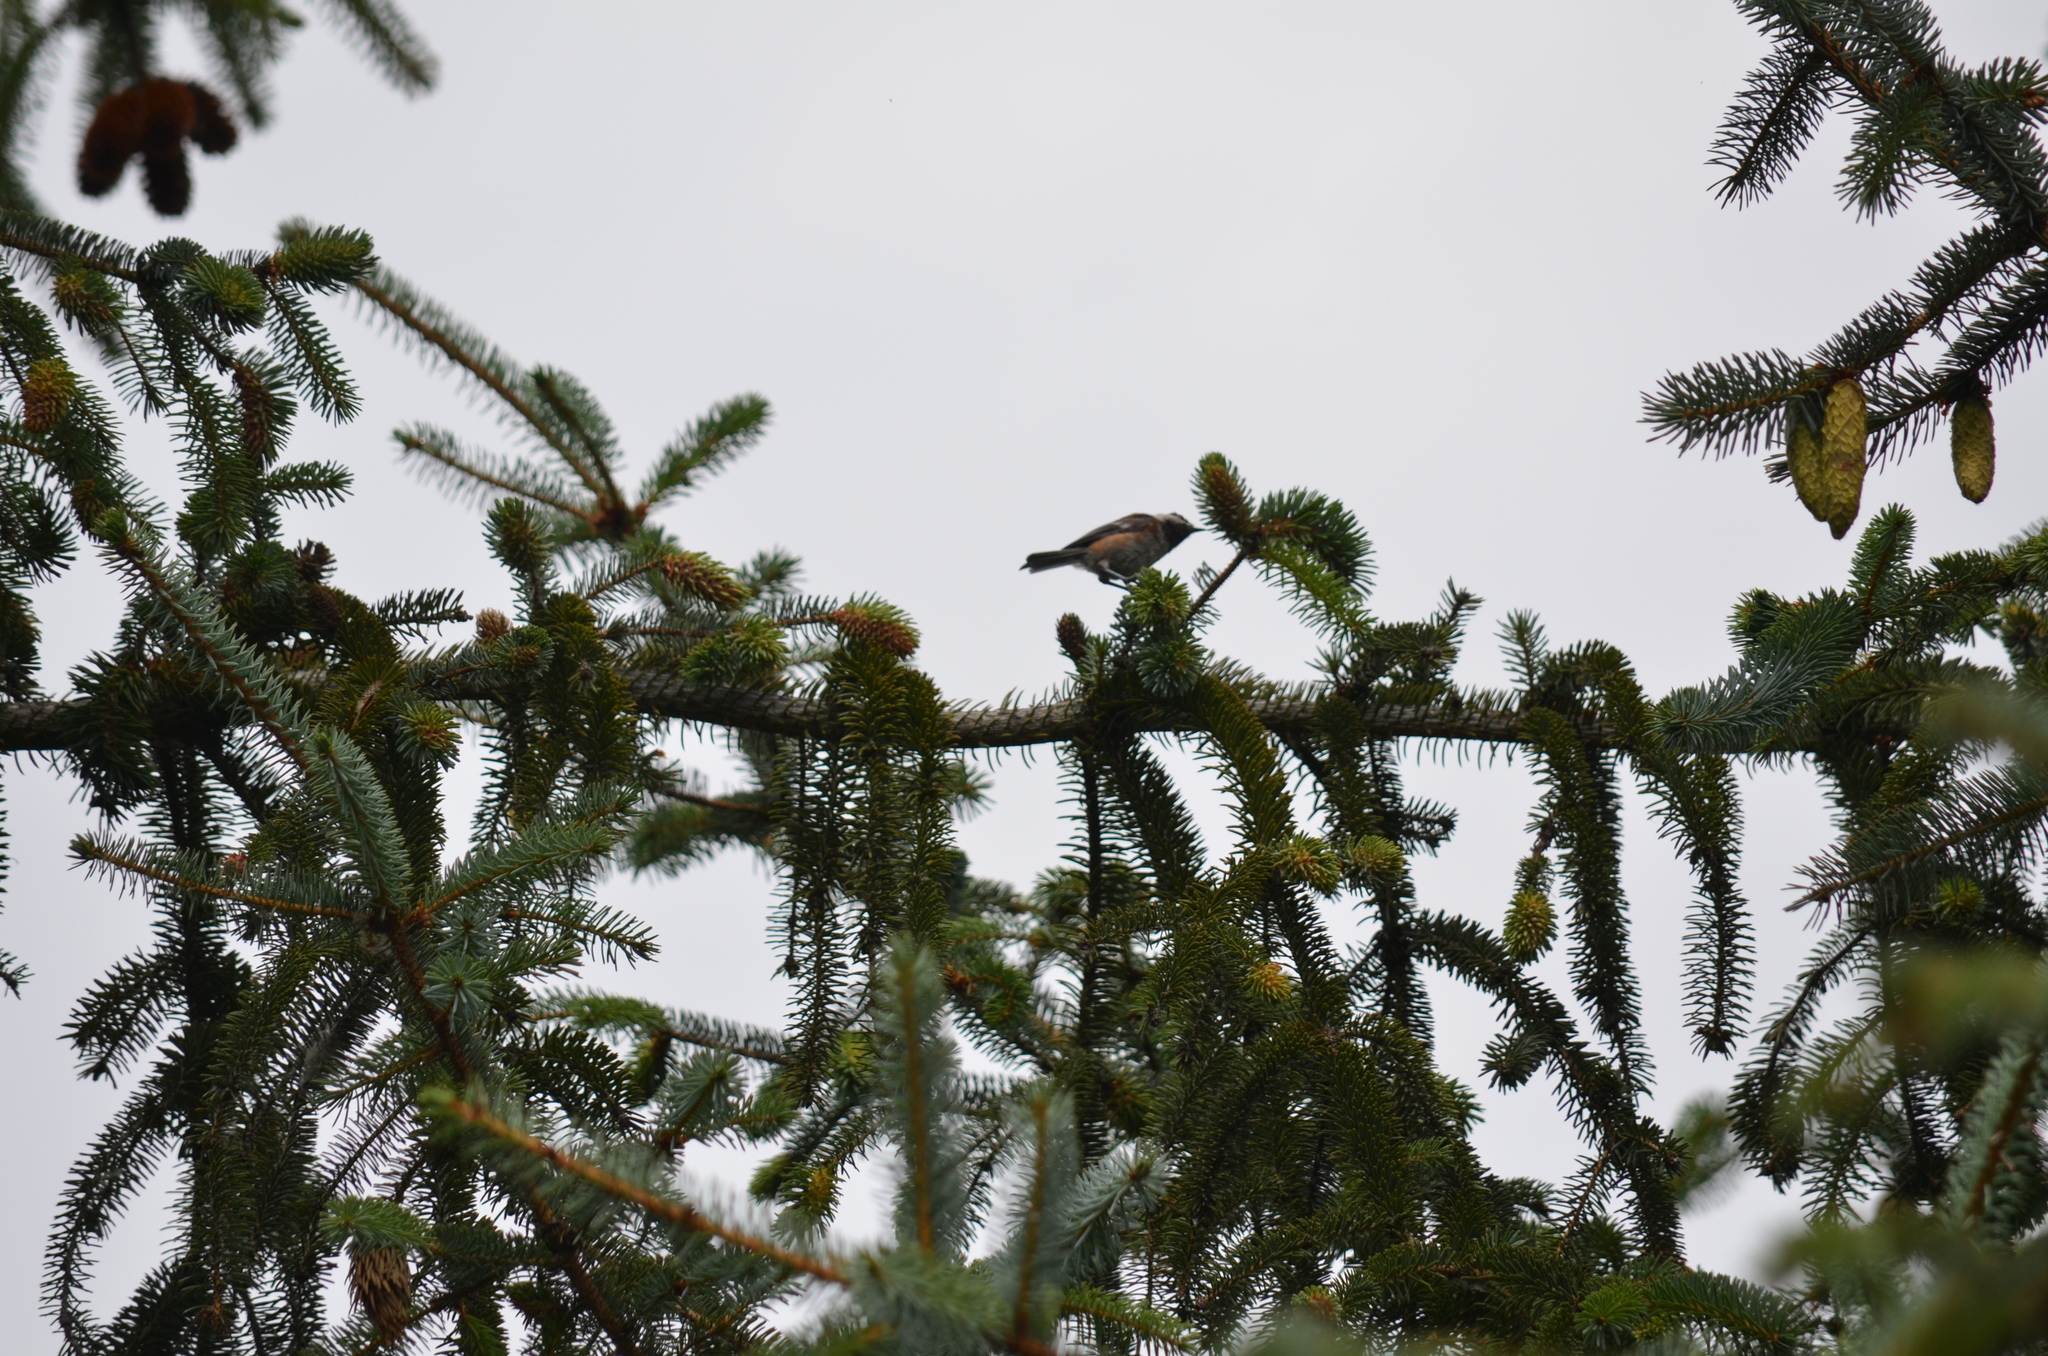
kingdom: Animalia
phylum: Chordata
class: Aves
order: Passeriformes
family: Paridae
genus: Poecile
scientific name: Poecile rufescens
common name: Chestnut-backed chickadee
